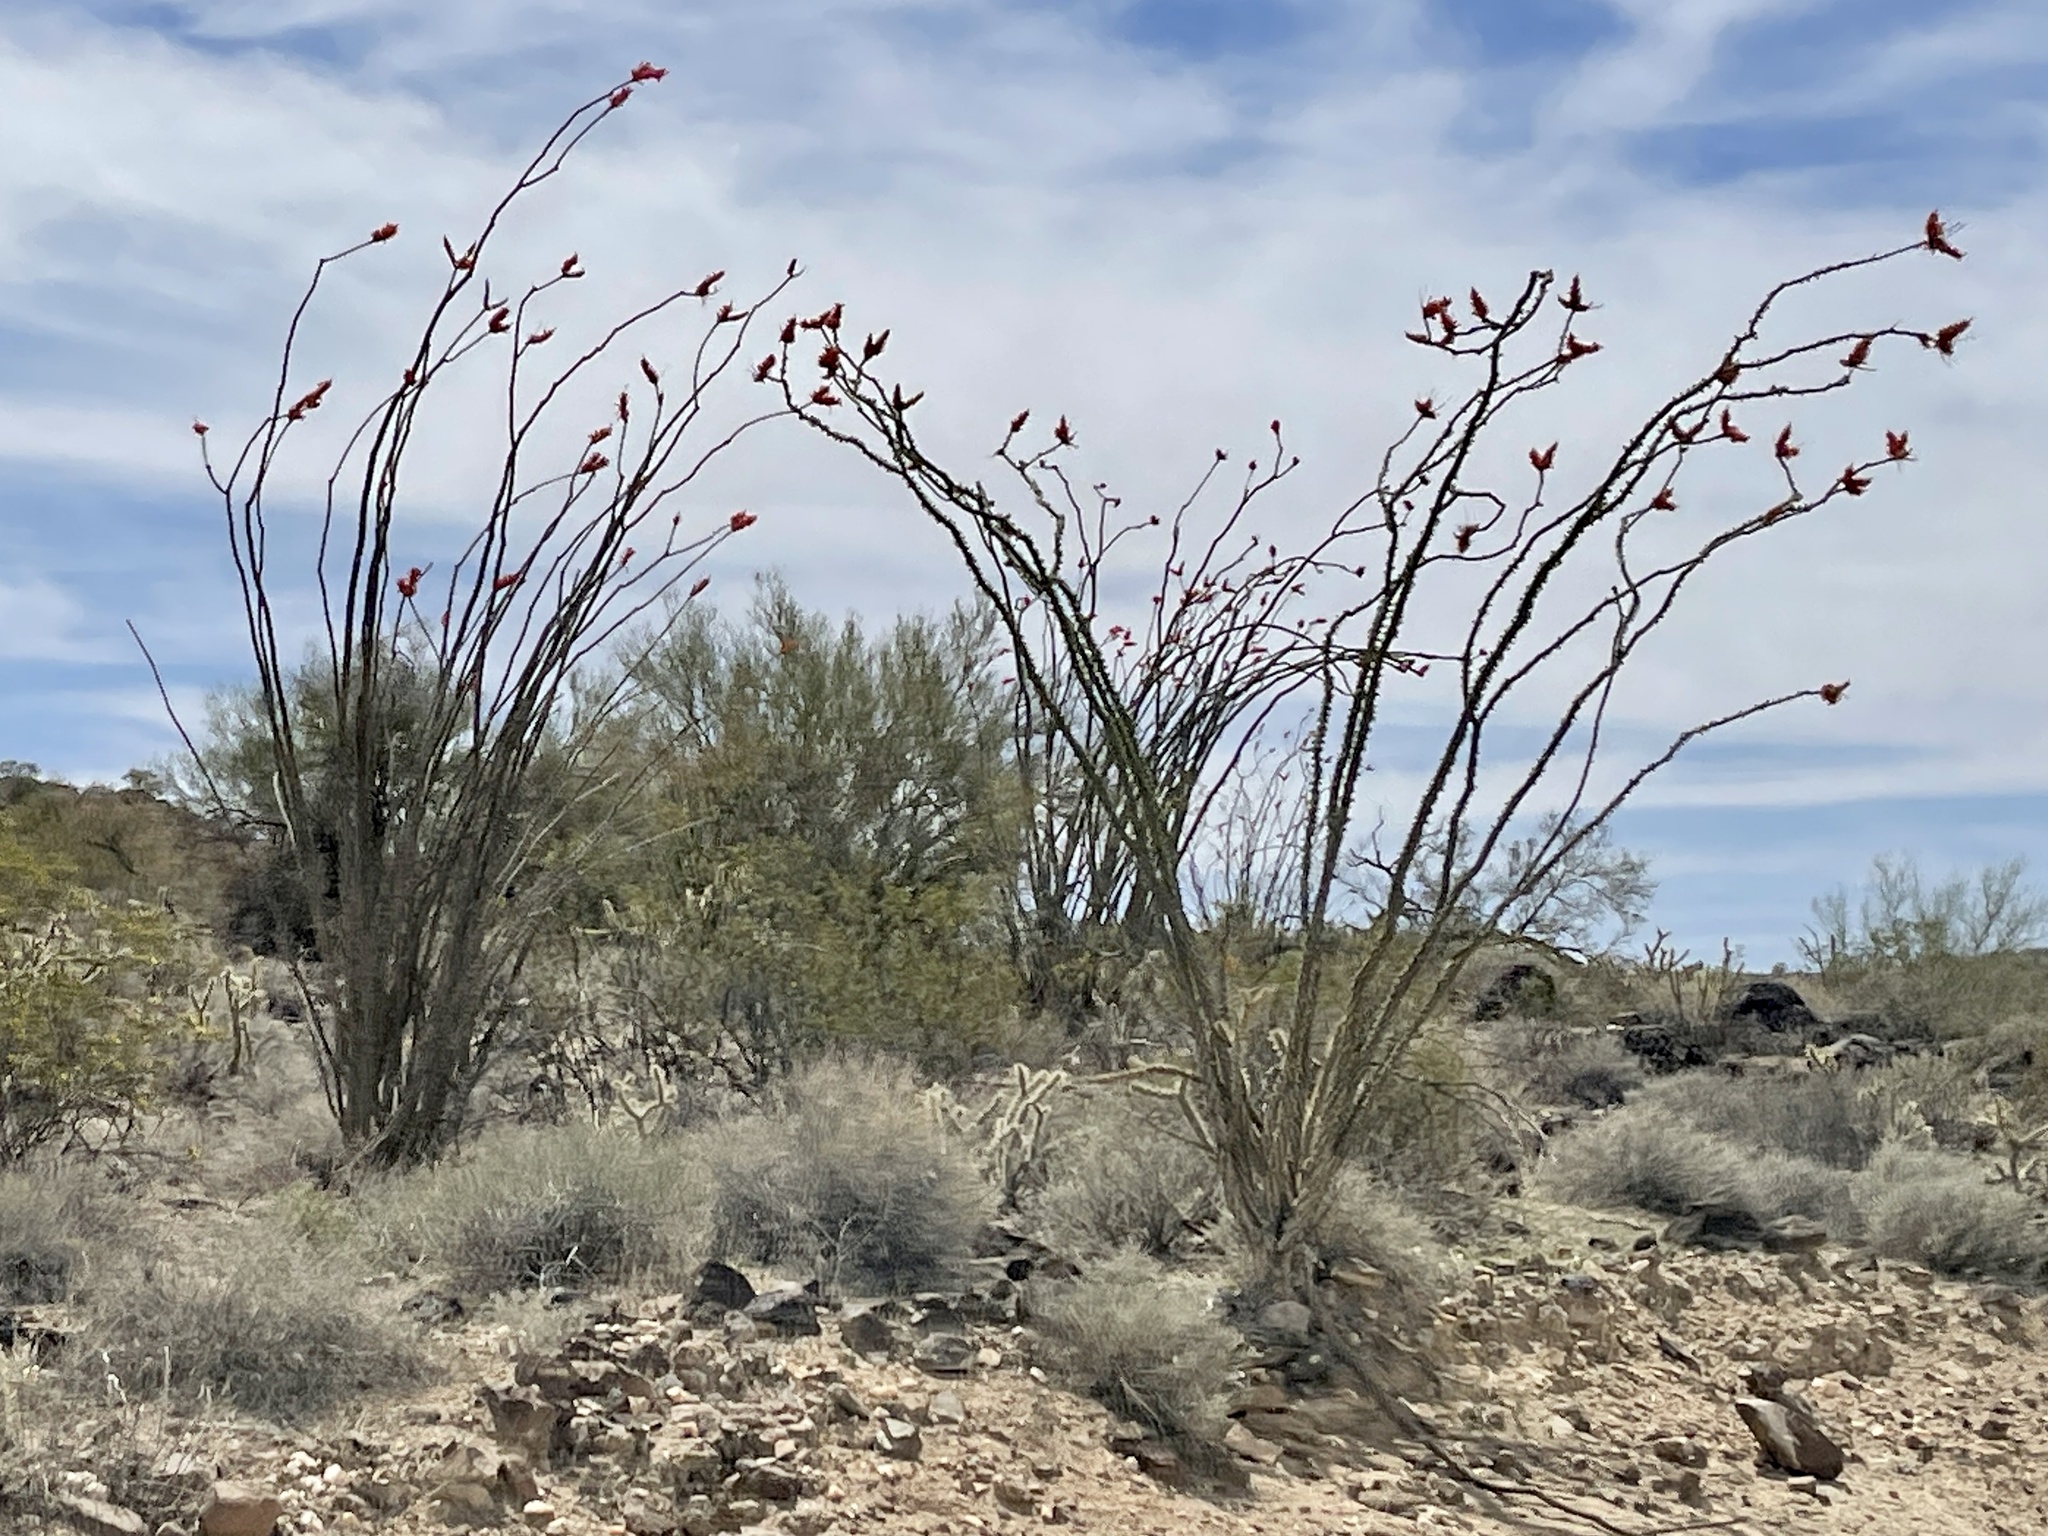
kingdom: Plantae
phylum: Tracheophyta
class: Magnoliopsida
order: Ericales
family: Fouquieriaceae
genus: Fouquieria
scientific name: Fouquieria splendens
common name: Vine-cactus
